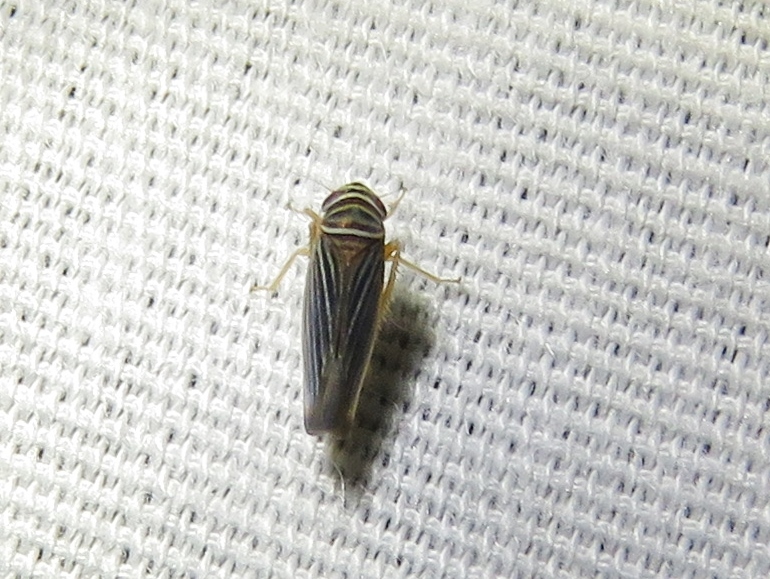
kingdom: Animalia
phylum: Arthropoda
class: Insecta
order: Hemiptera
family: Cicadellidae
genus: Tylozygus
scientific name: Tylozygus bifidus
